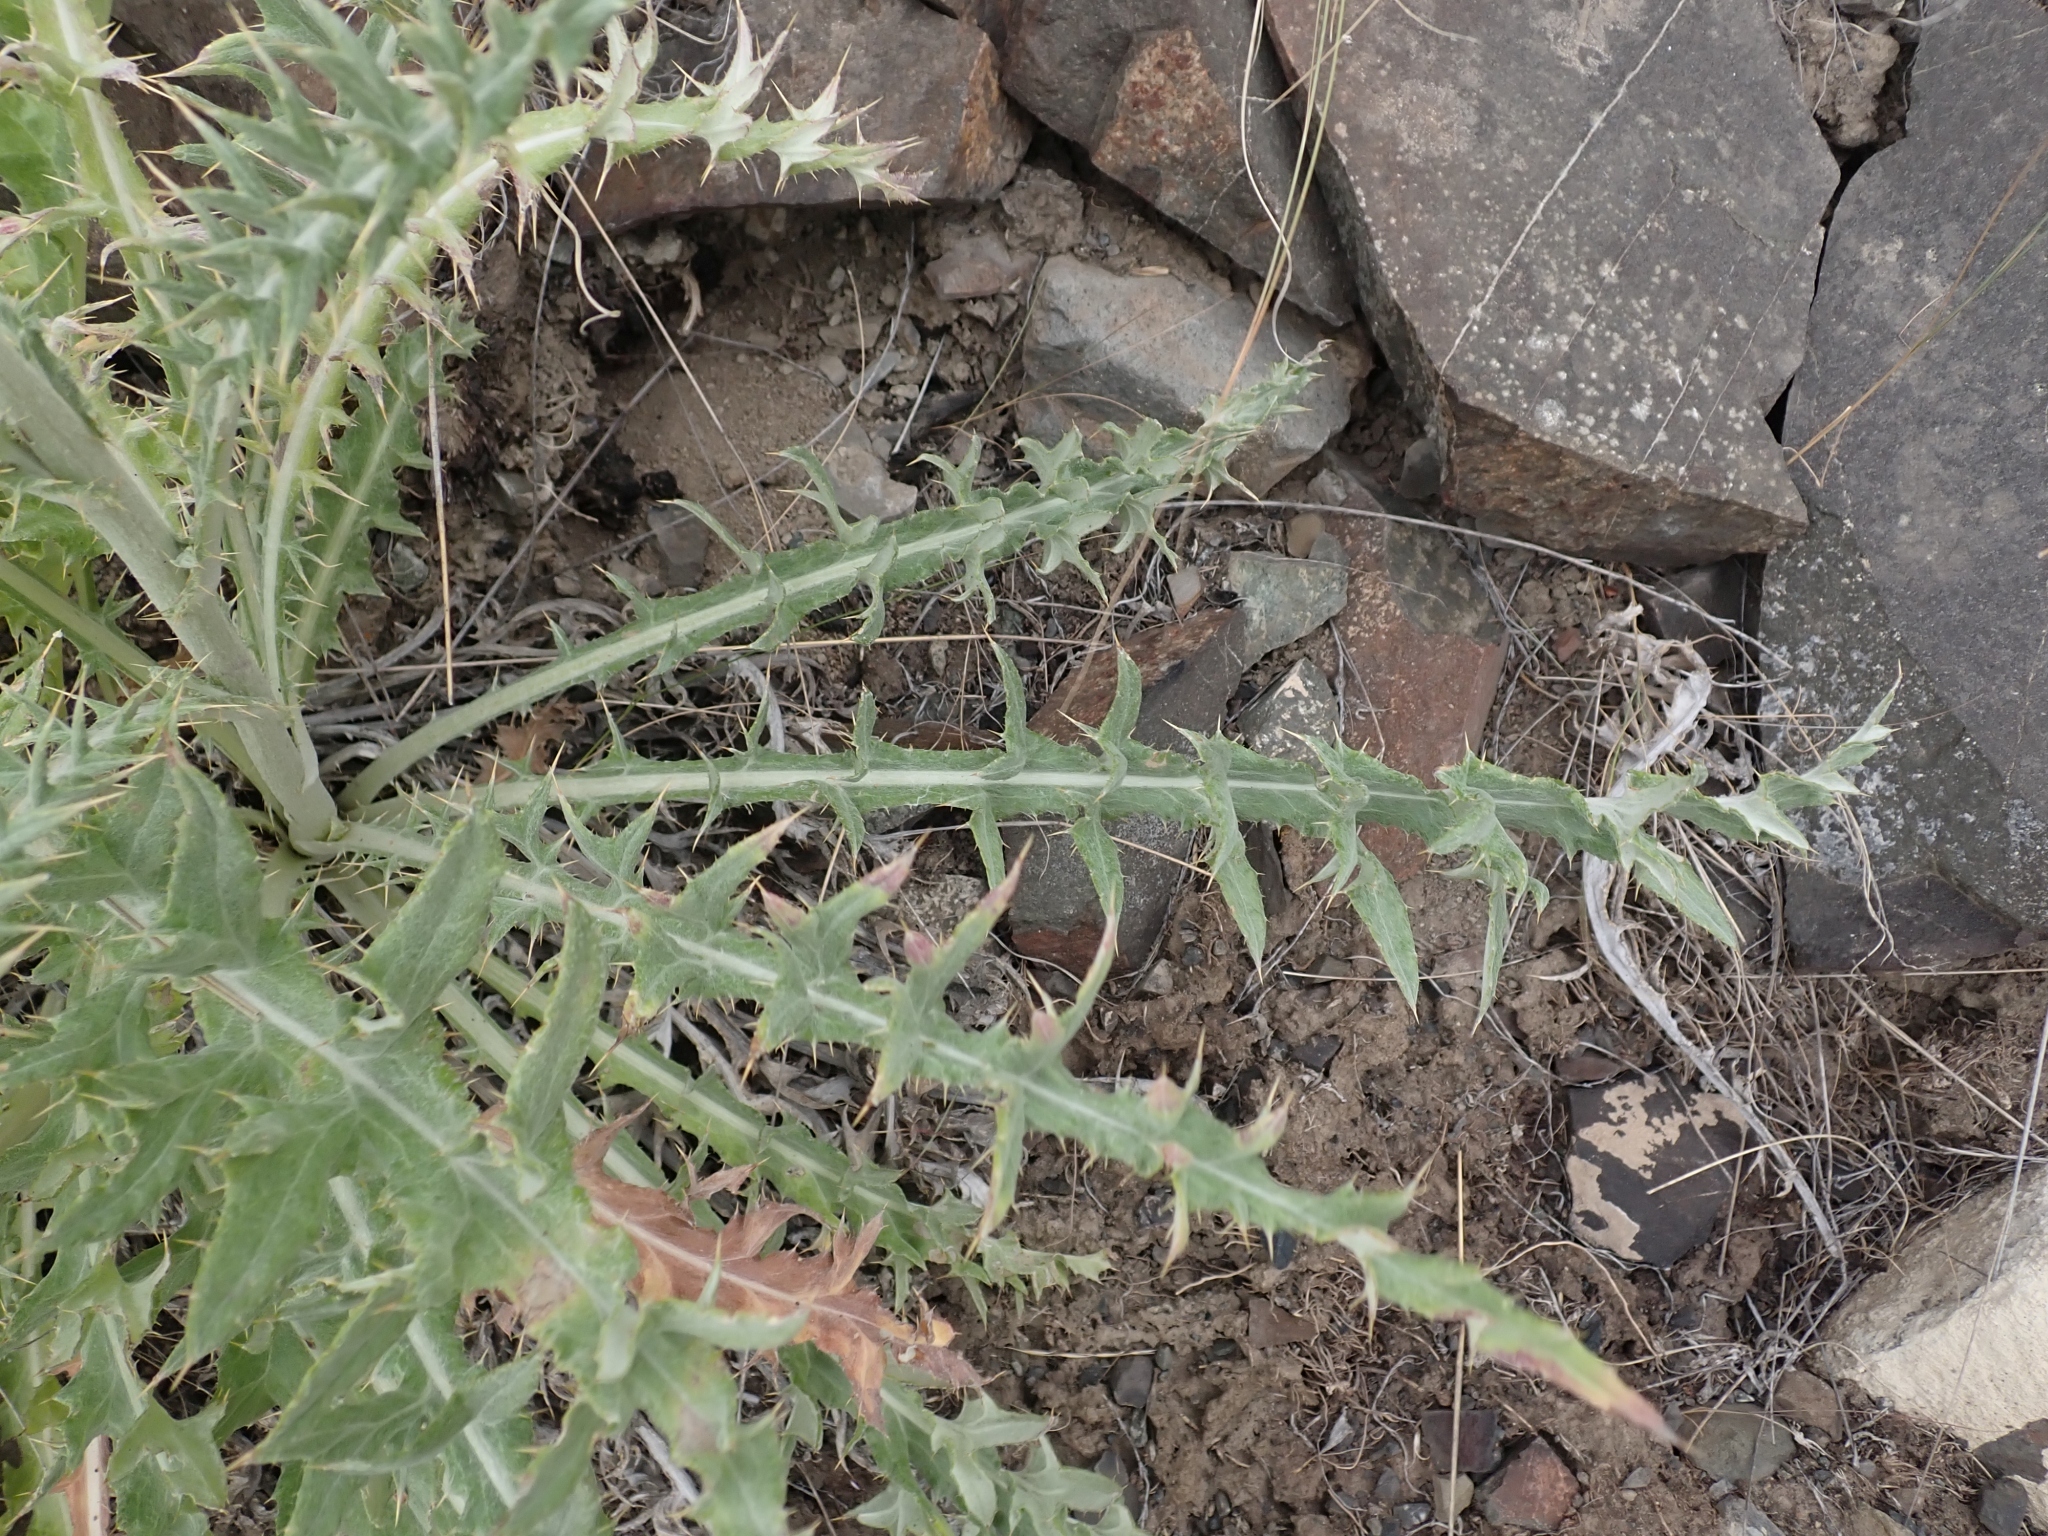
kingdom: Plantae
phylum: Tracheophyta
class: Magnoliopsida
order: Asterales
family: Asteraceae
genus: Cirsium
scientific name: Cirsium undulatum
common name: Pasture thistle
